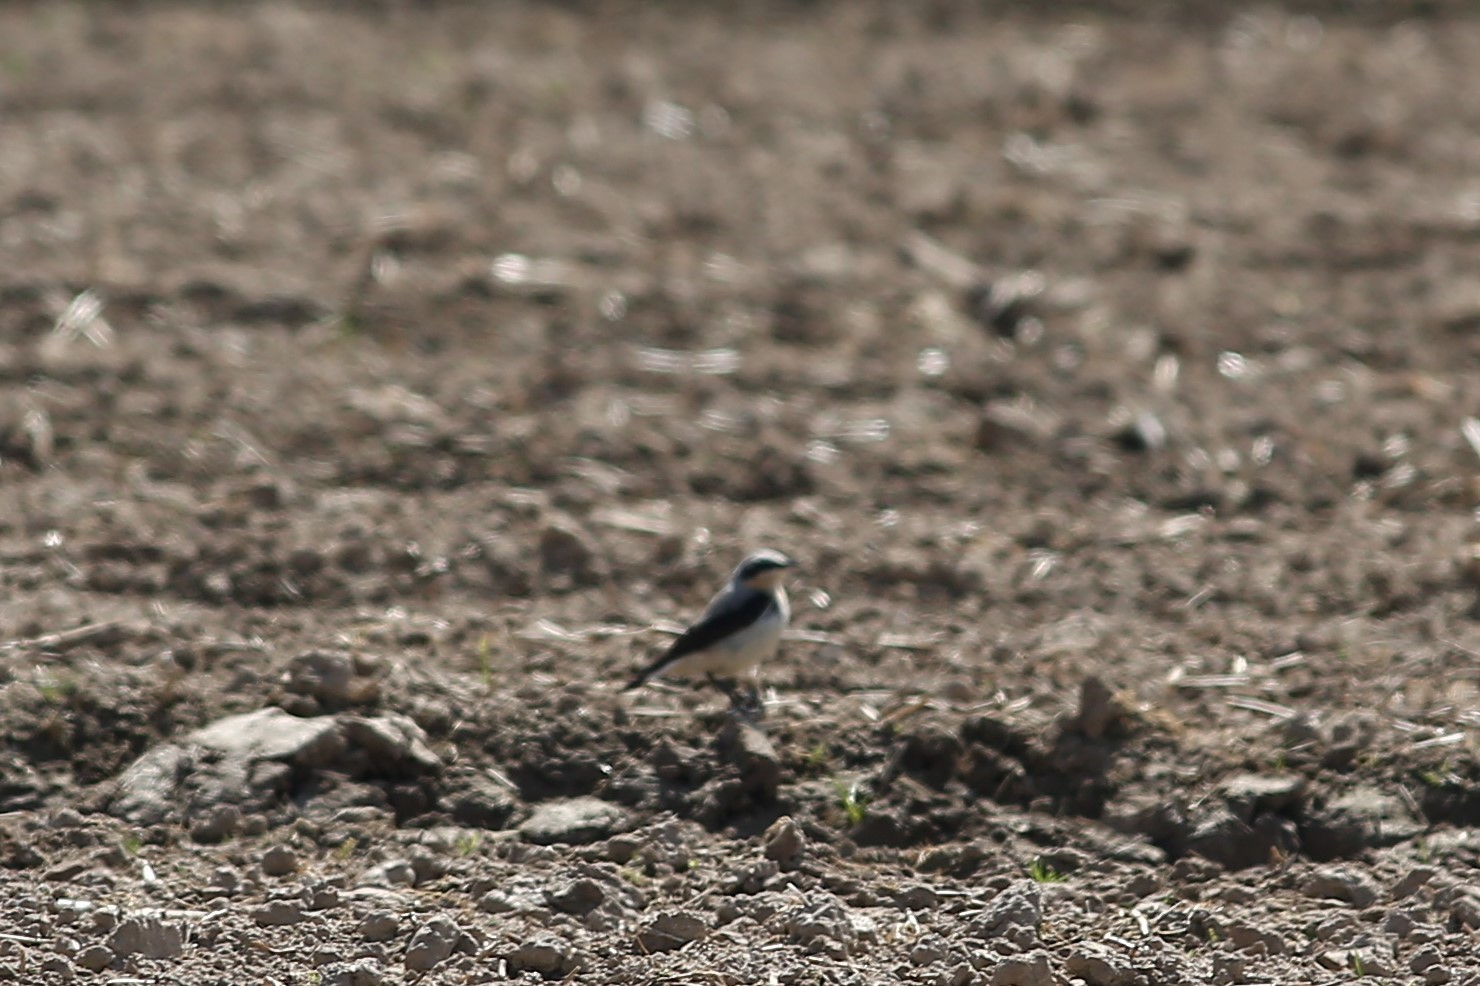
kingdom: Animalia
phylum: Chordata
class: Aves
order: Passeriformes
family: Muscicapidae
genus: Oenanthe
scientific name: Oenanthe oenanthe
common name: Northern wheatear
